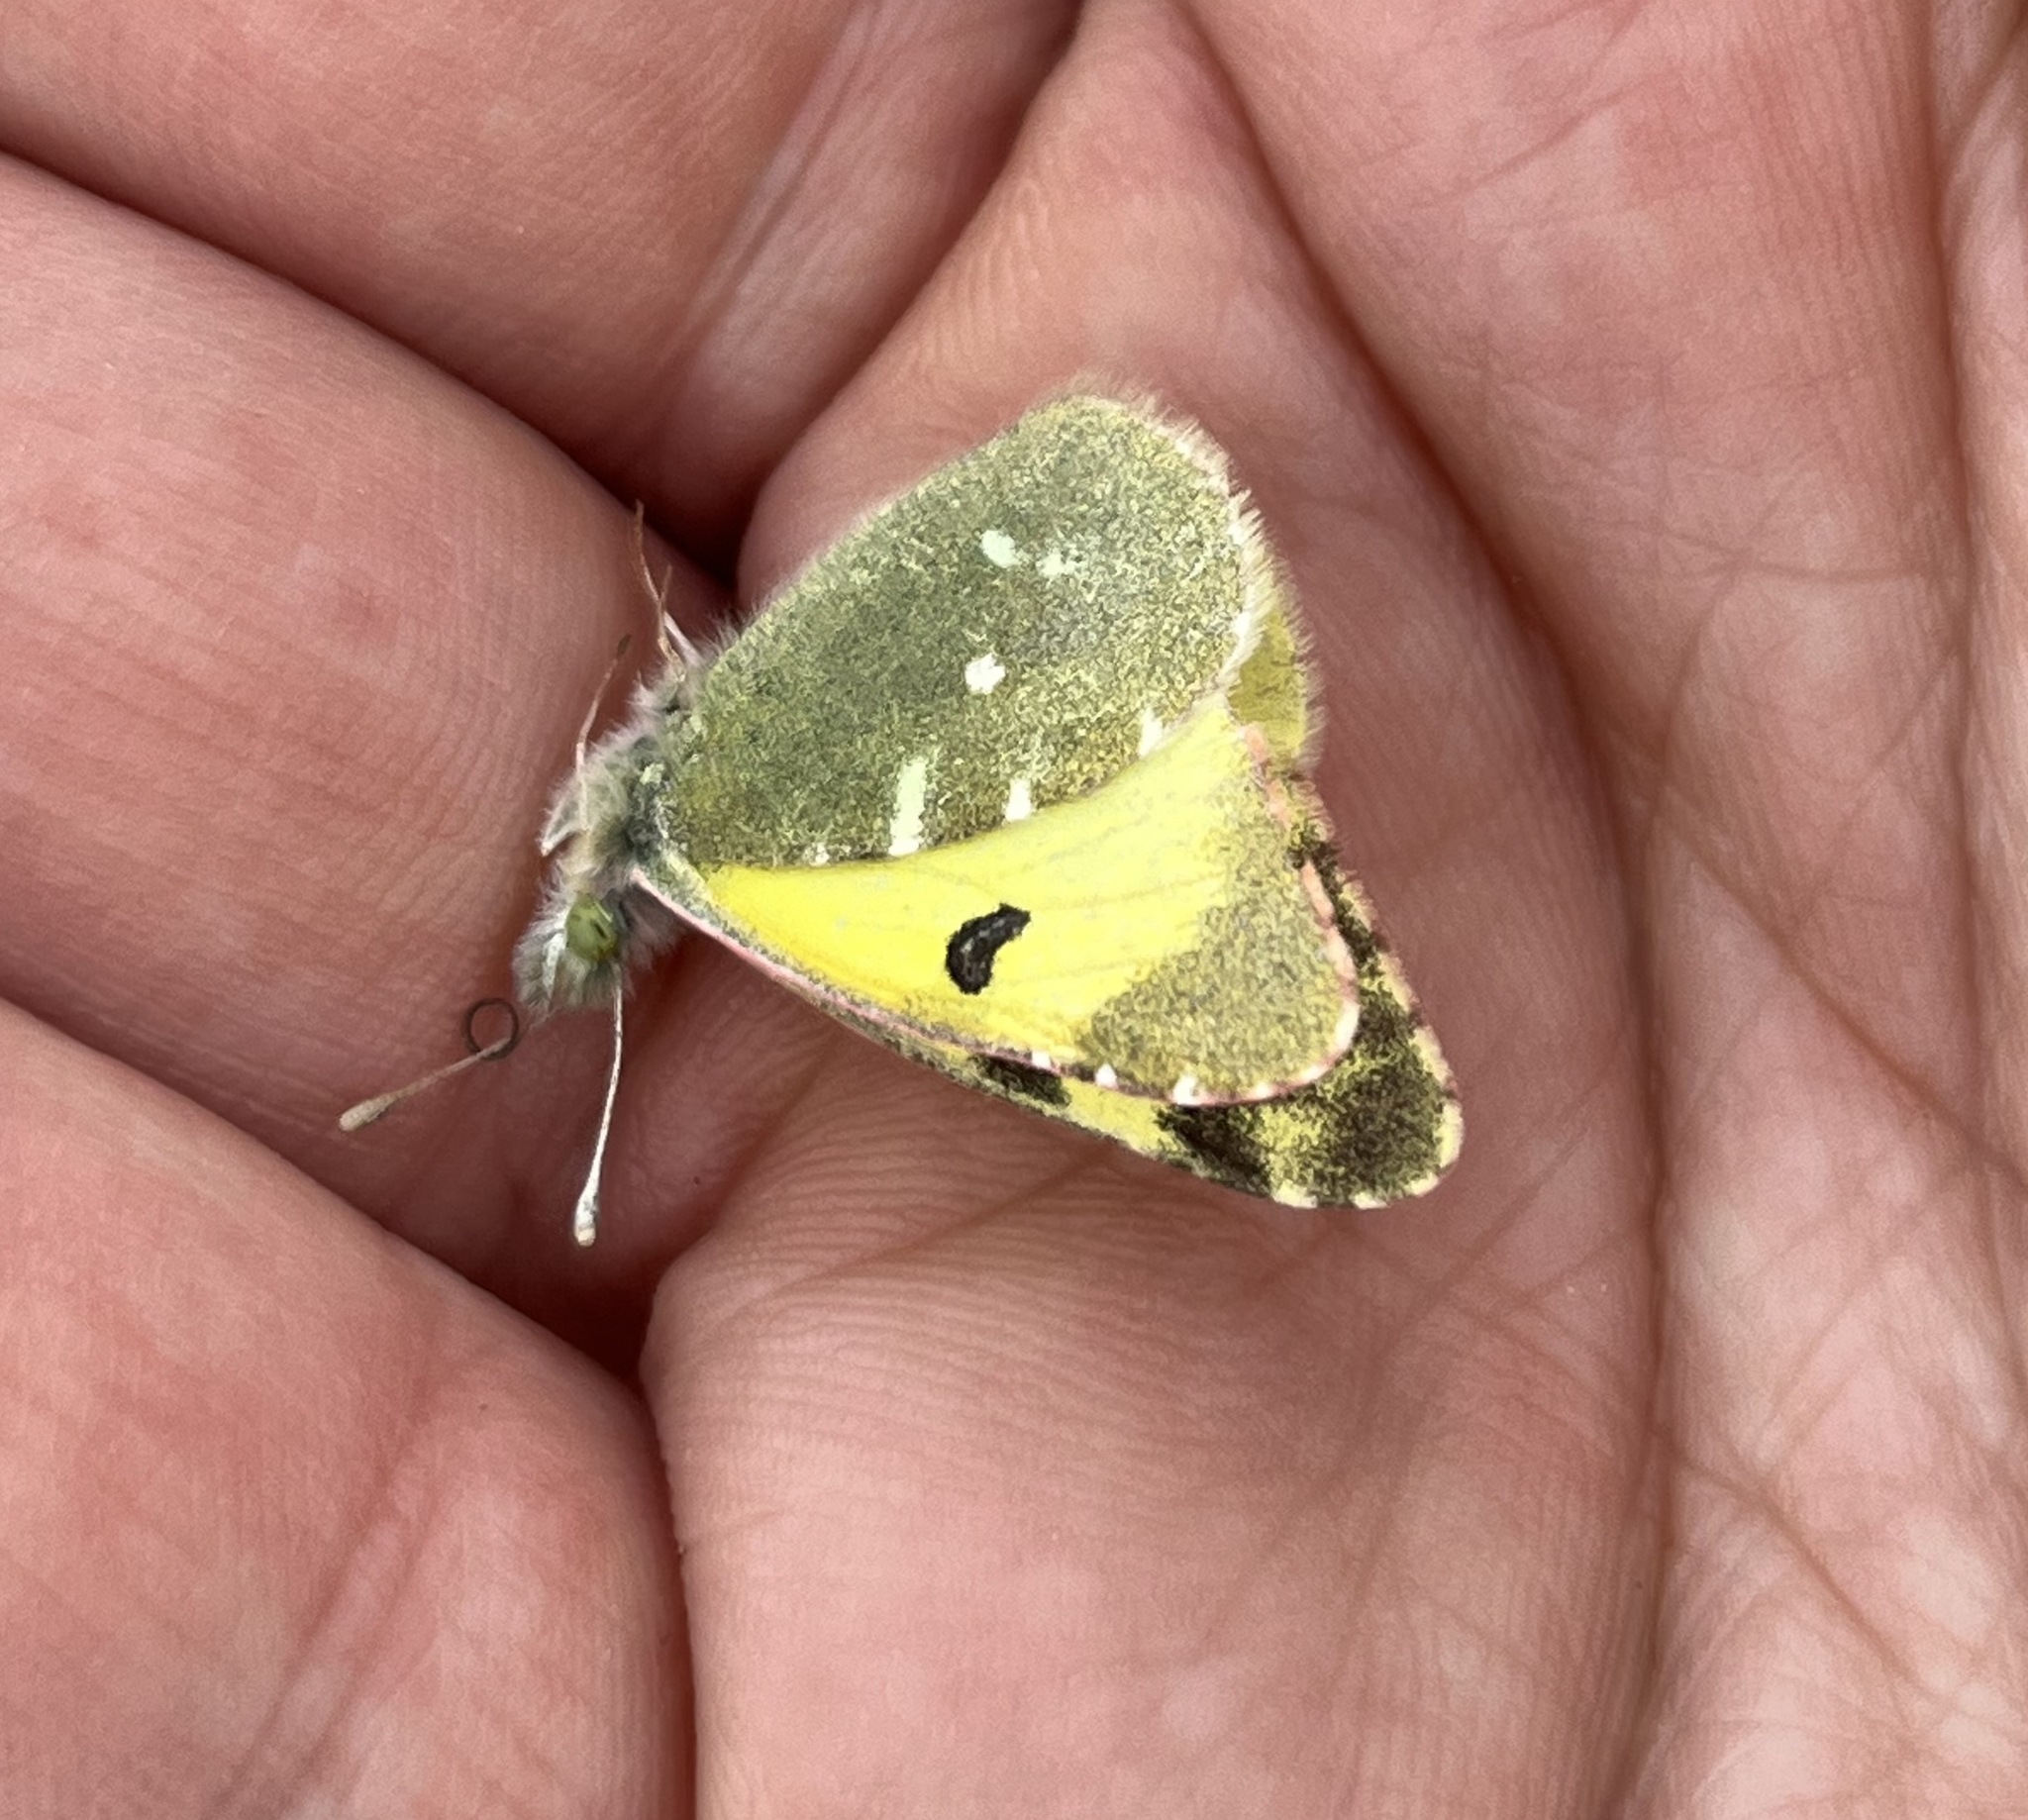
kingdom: Animalia
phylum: Arthropoda
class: Insecta
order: Lepidoptera
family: Pieridae
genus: Elphinstonia
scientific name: Elphinstonia charlonia
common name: Greenish black-tip
